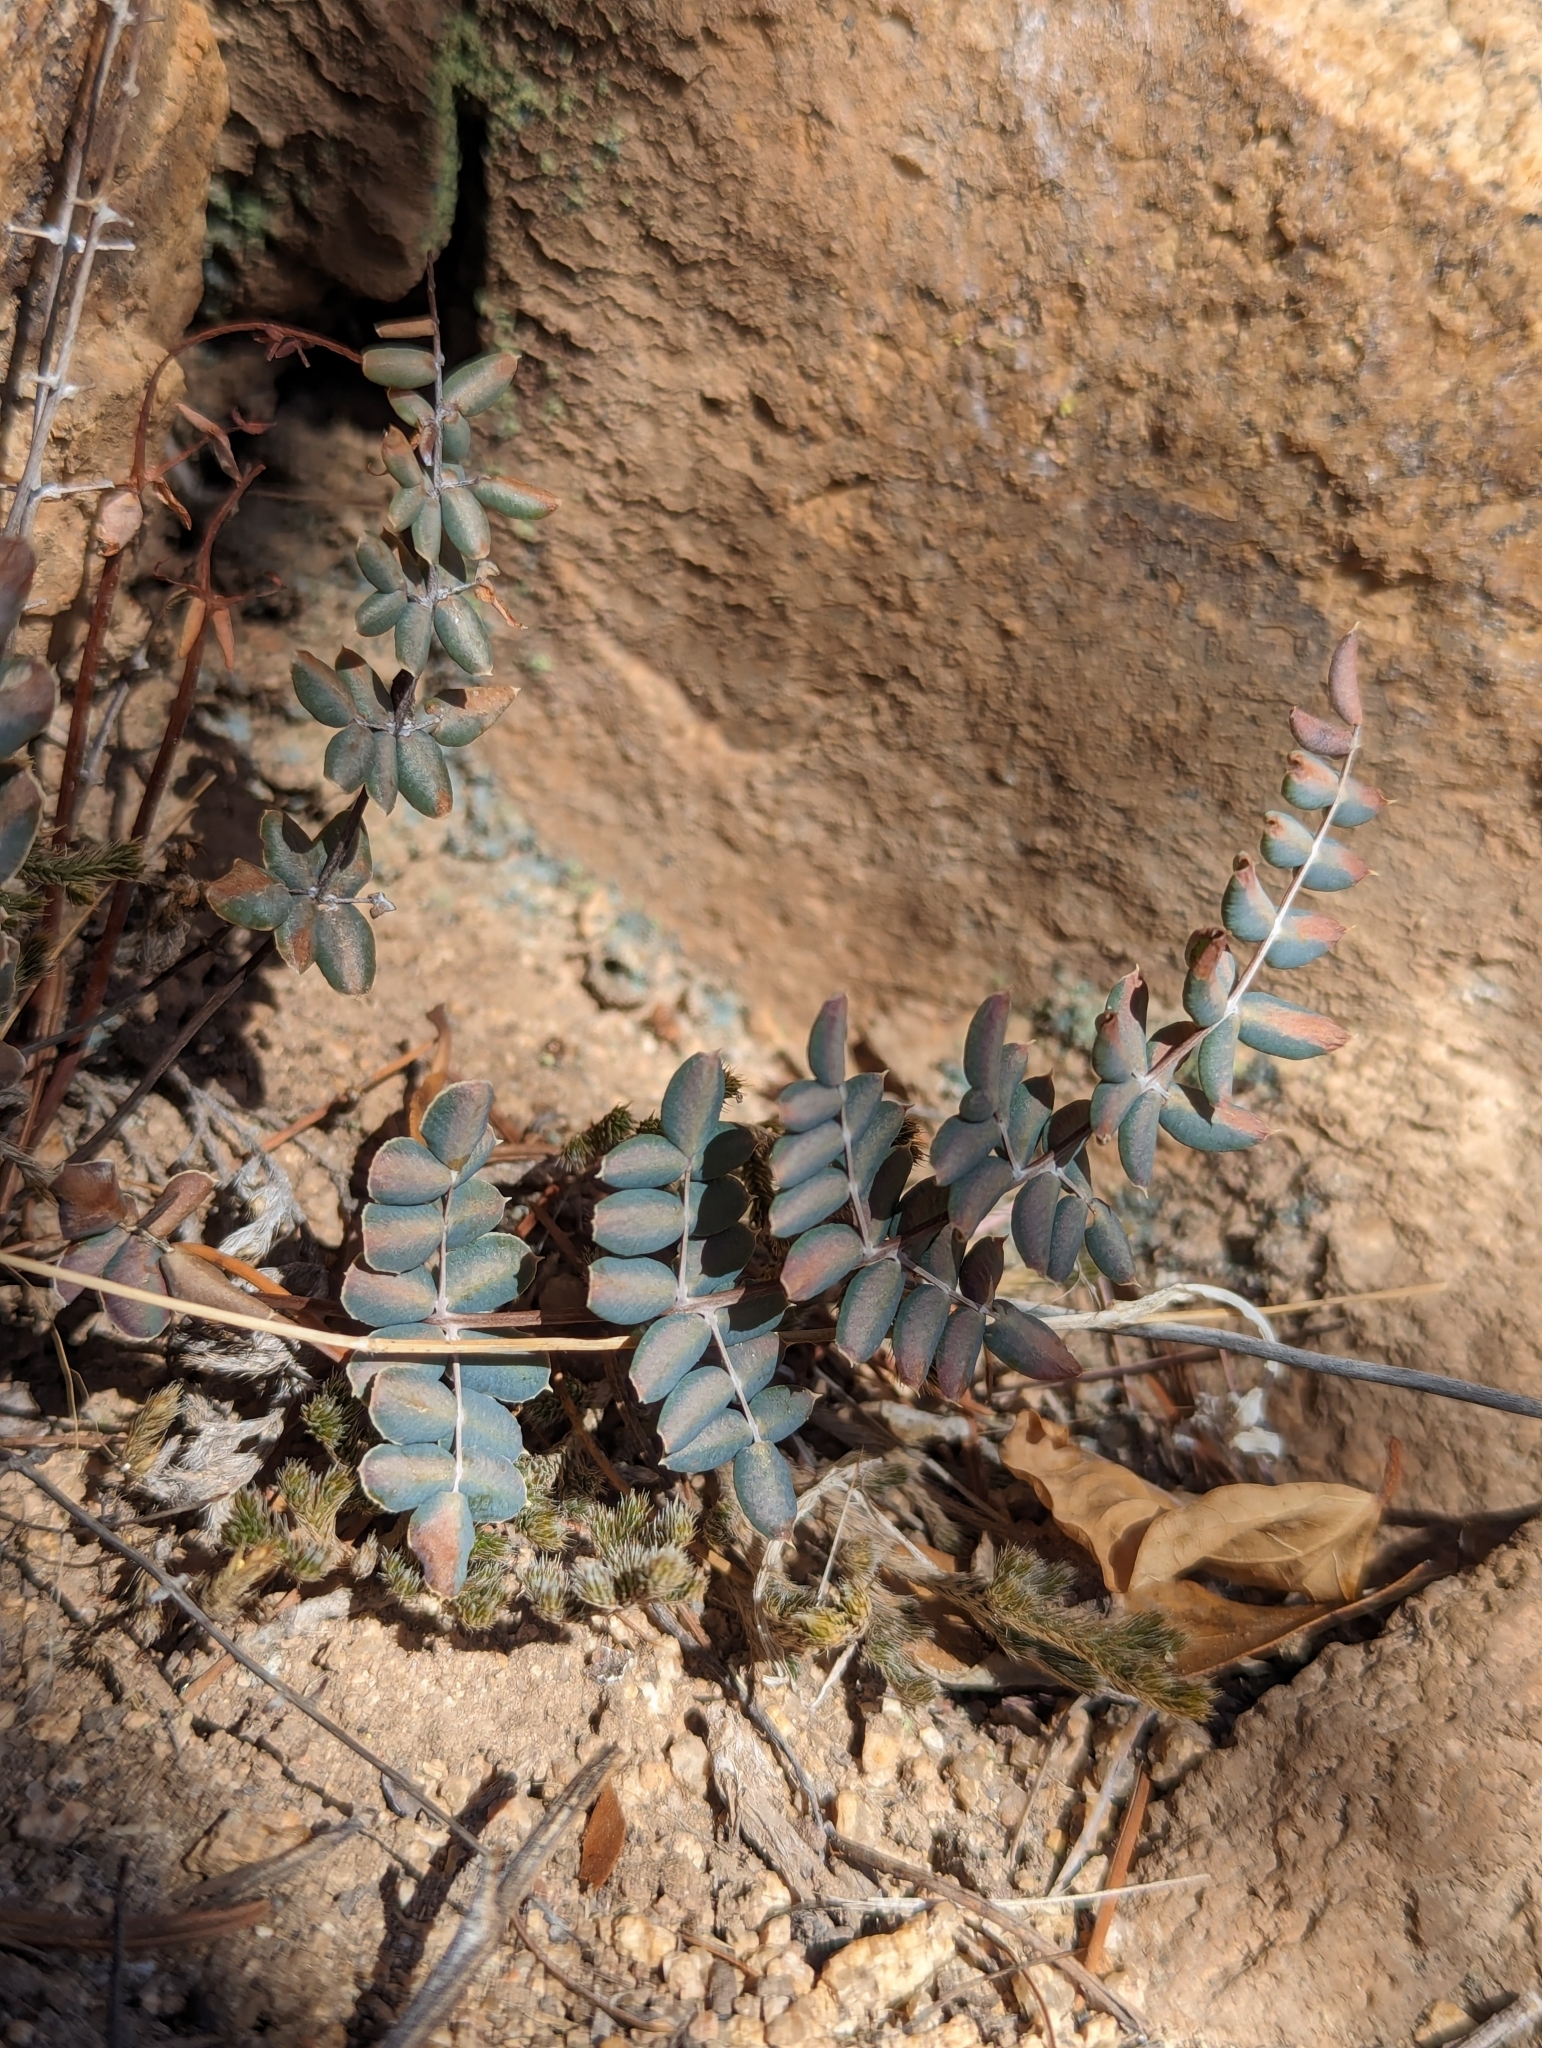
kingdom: Plantae
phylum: Tracheophyta
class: Polypodiopsida
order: Polypodiales
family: Pteridaceae
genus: Pellaea
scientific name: Pellaea truncata
